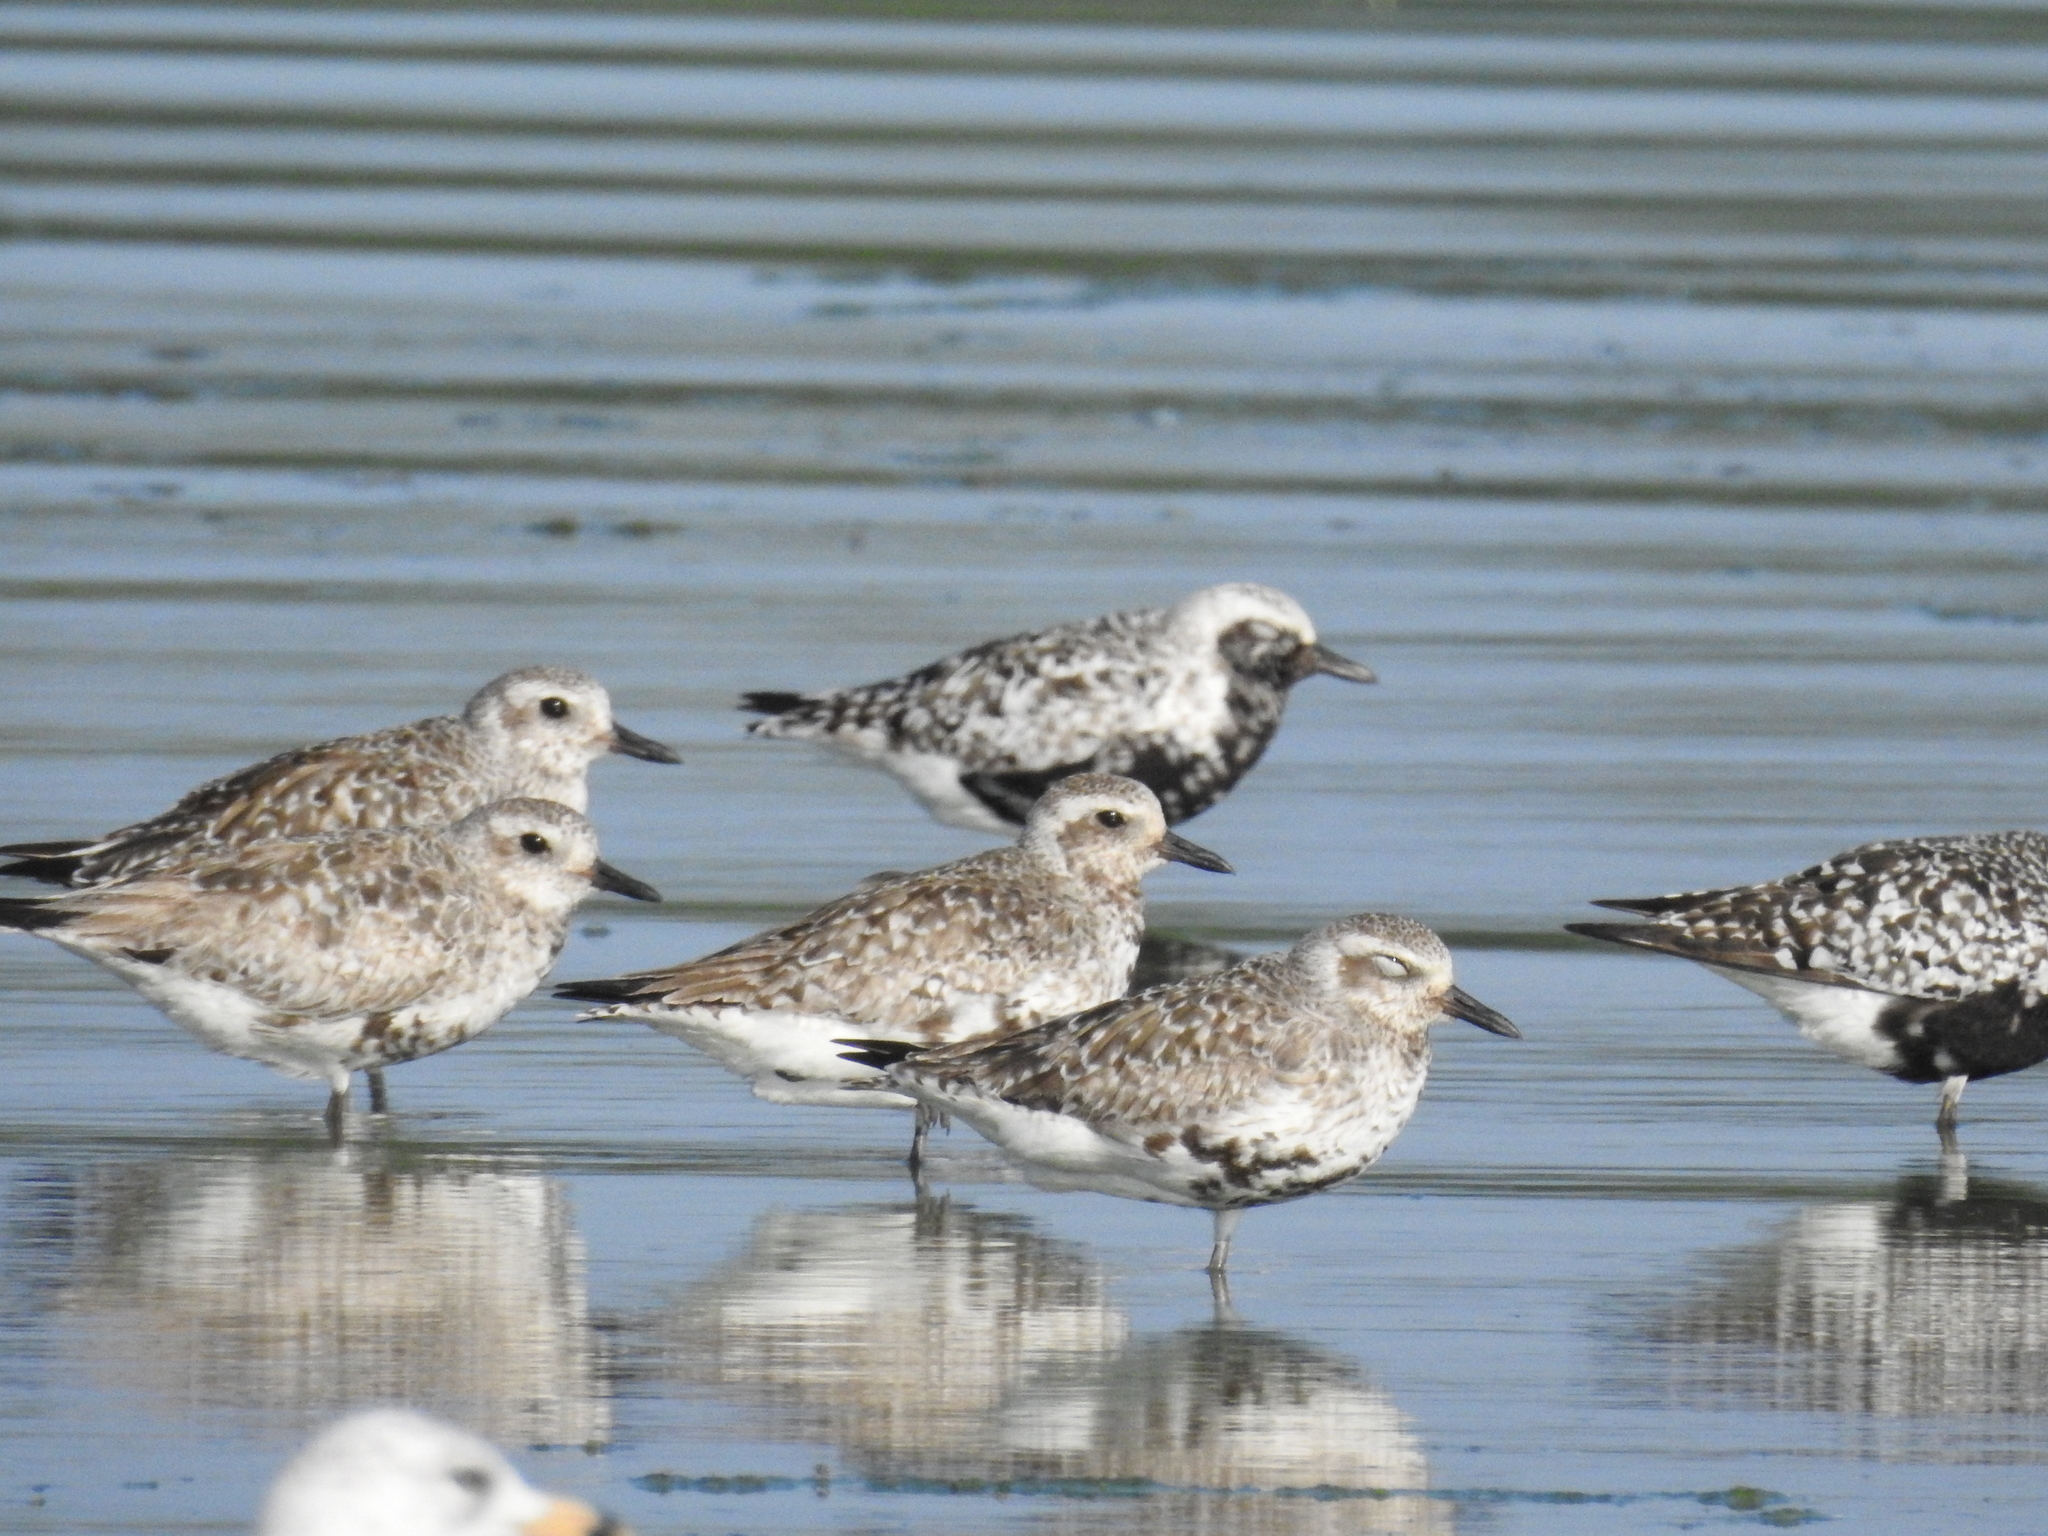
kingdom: Animalia
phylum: Chordata
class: Aves
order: Charadriiformes
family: Charadriidae
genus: Pluvialis
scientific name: Pluvialis squatarola
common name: Grey plover
